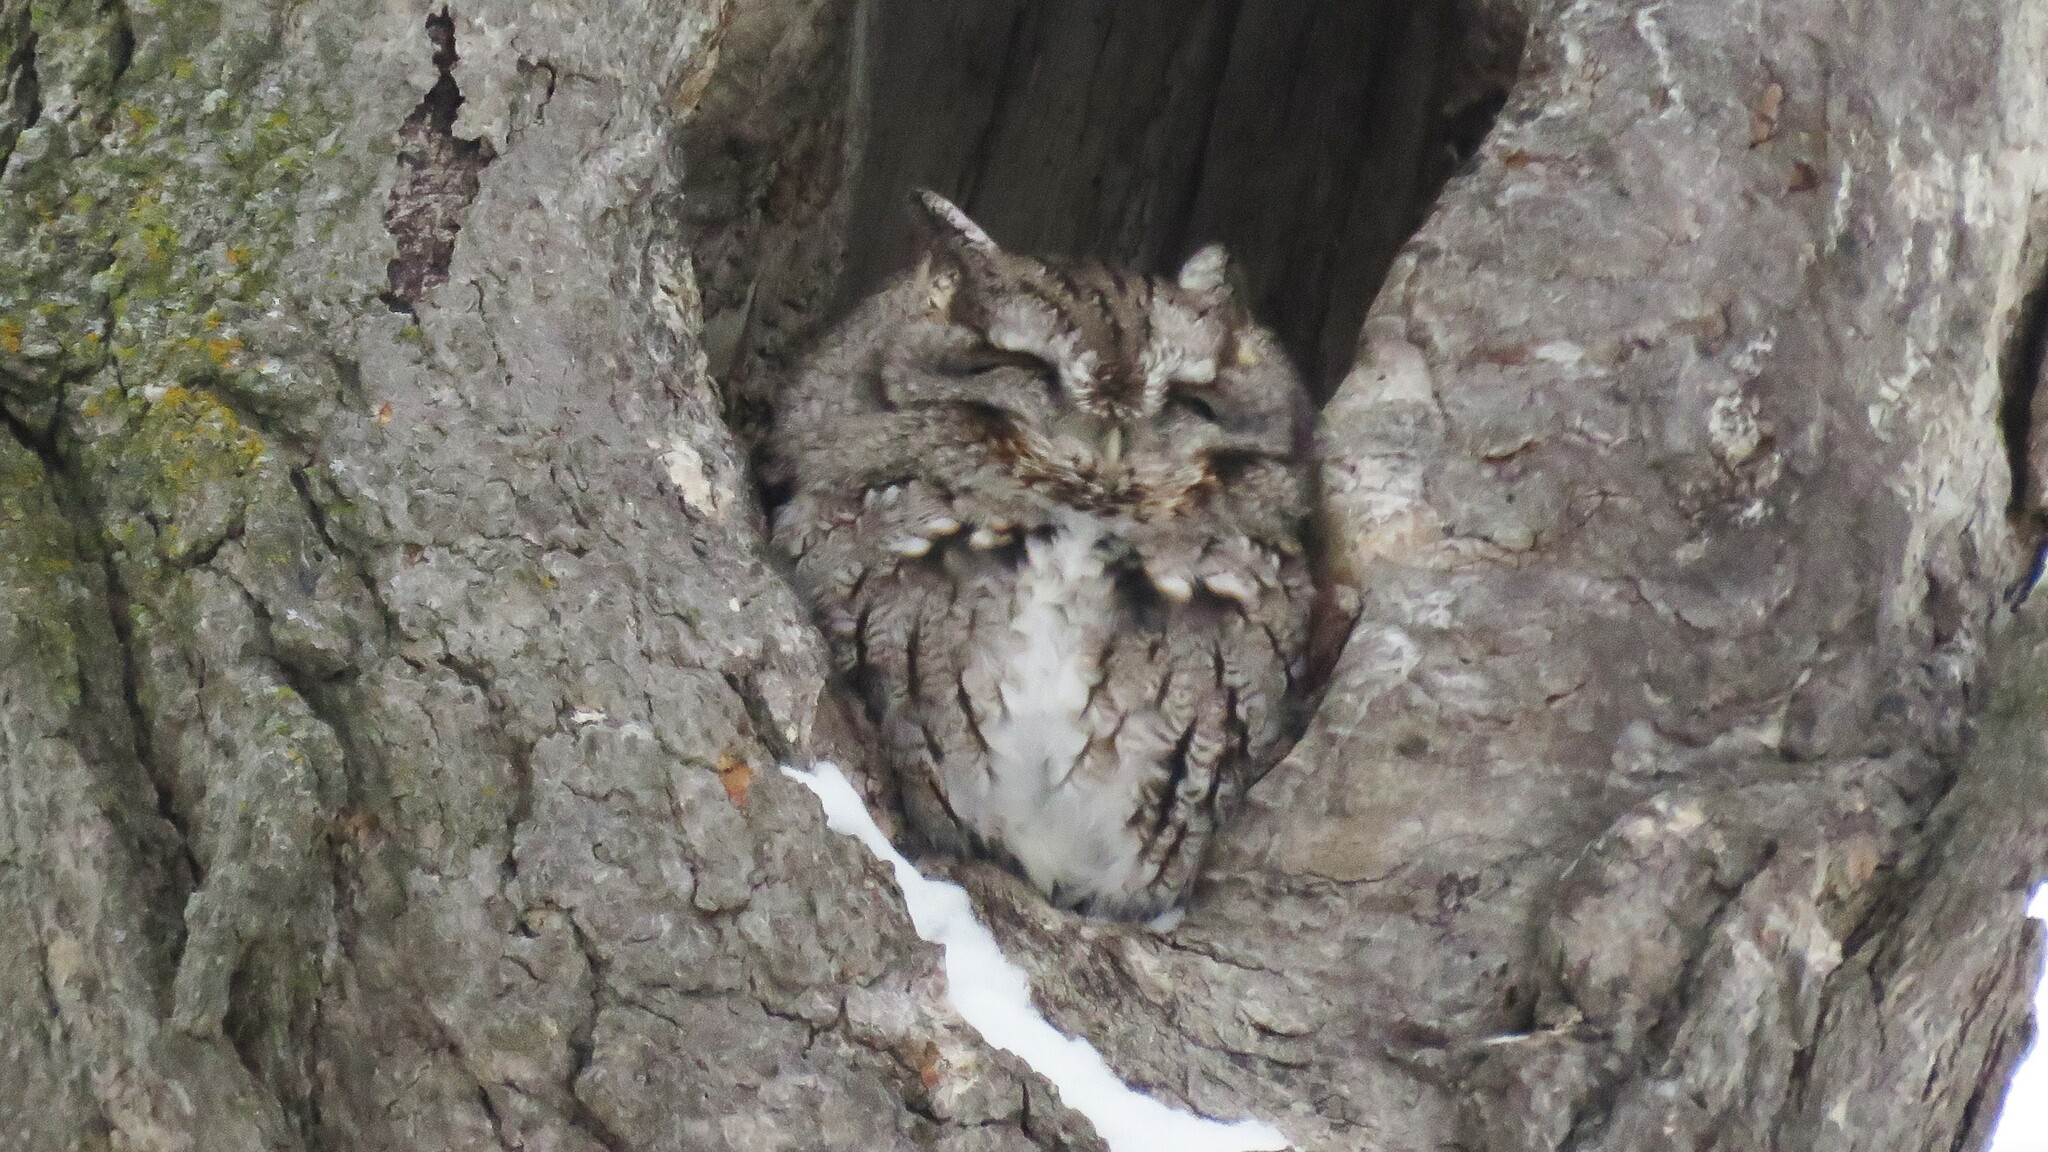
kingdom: Animalia
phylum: Chordata
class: Aves
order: Strigiformes
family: Strigidae
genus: Megascops
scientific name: Megascops asio
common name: Eastern screech-owl
